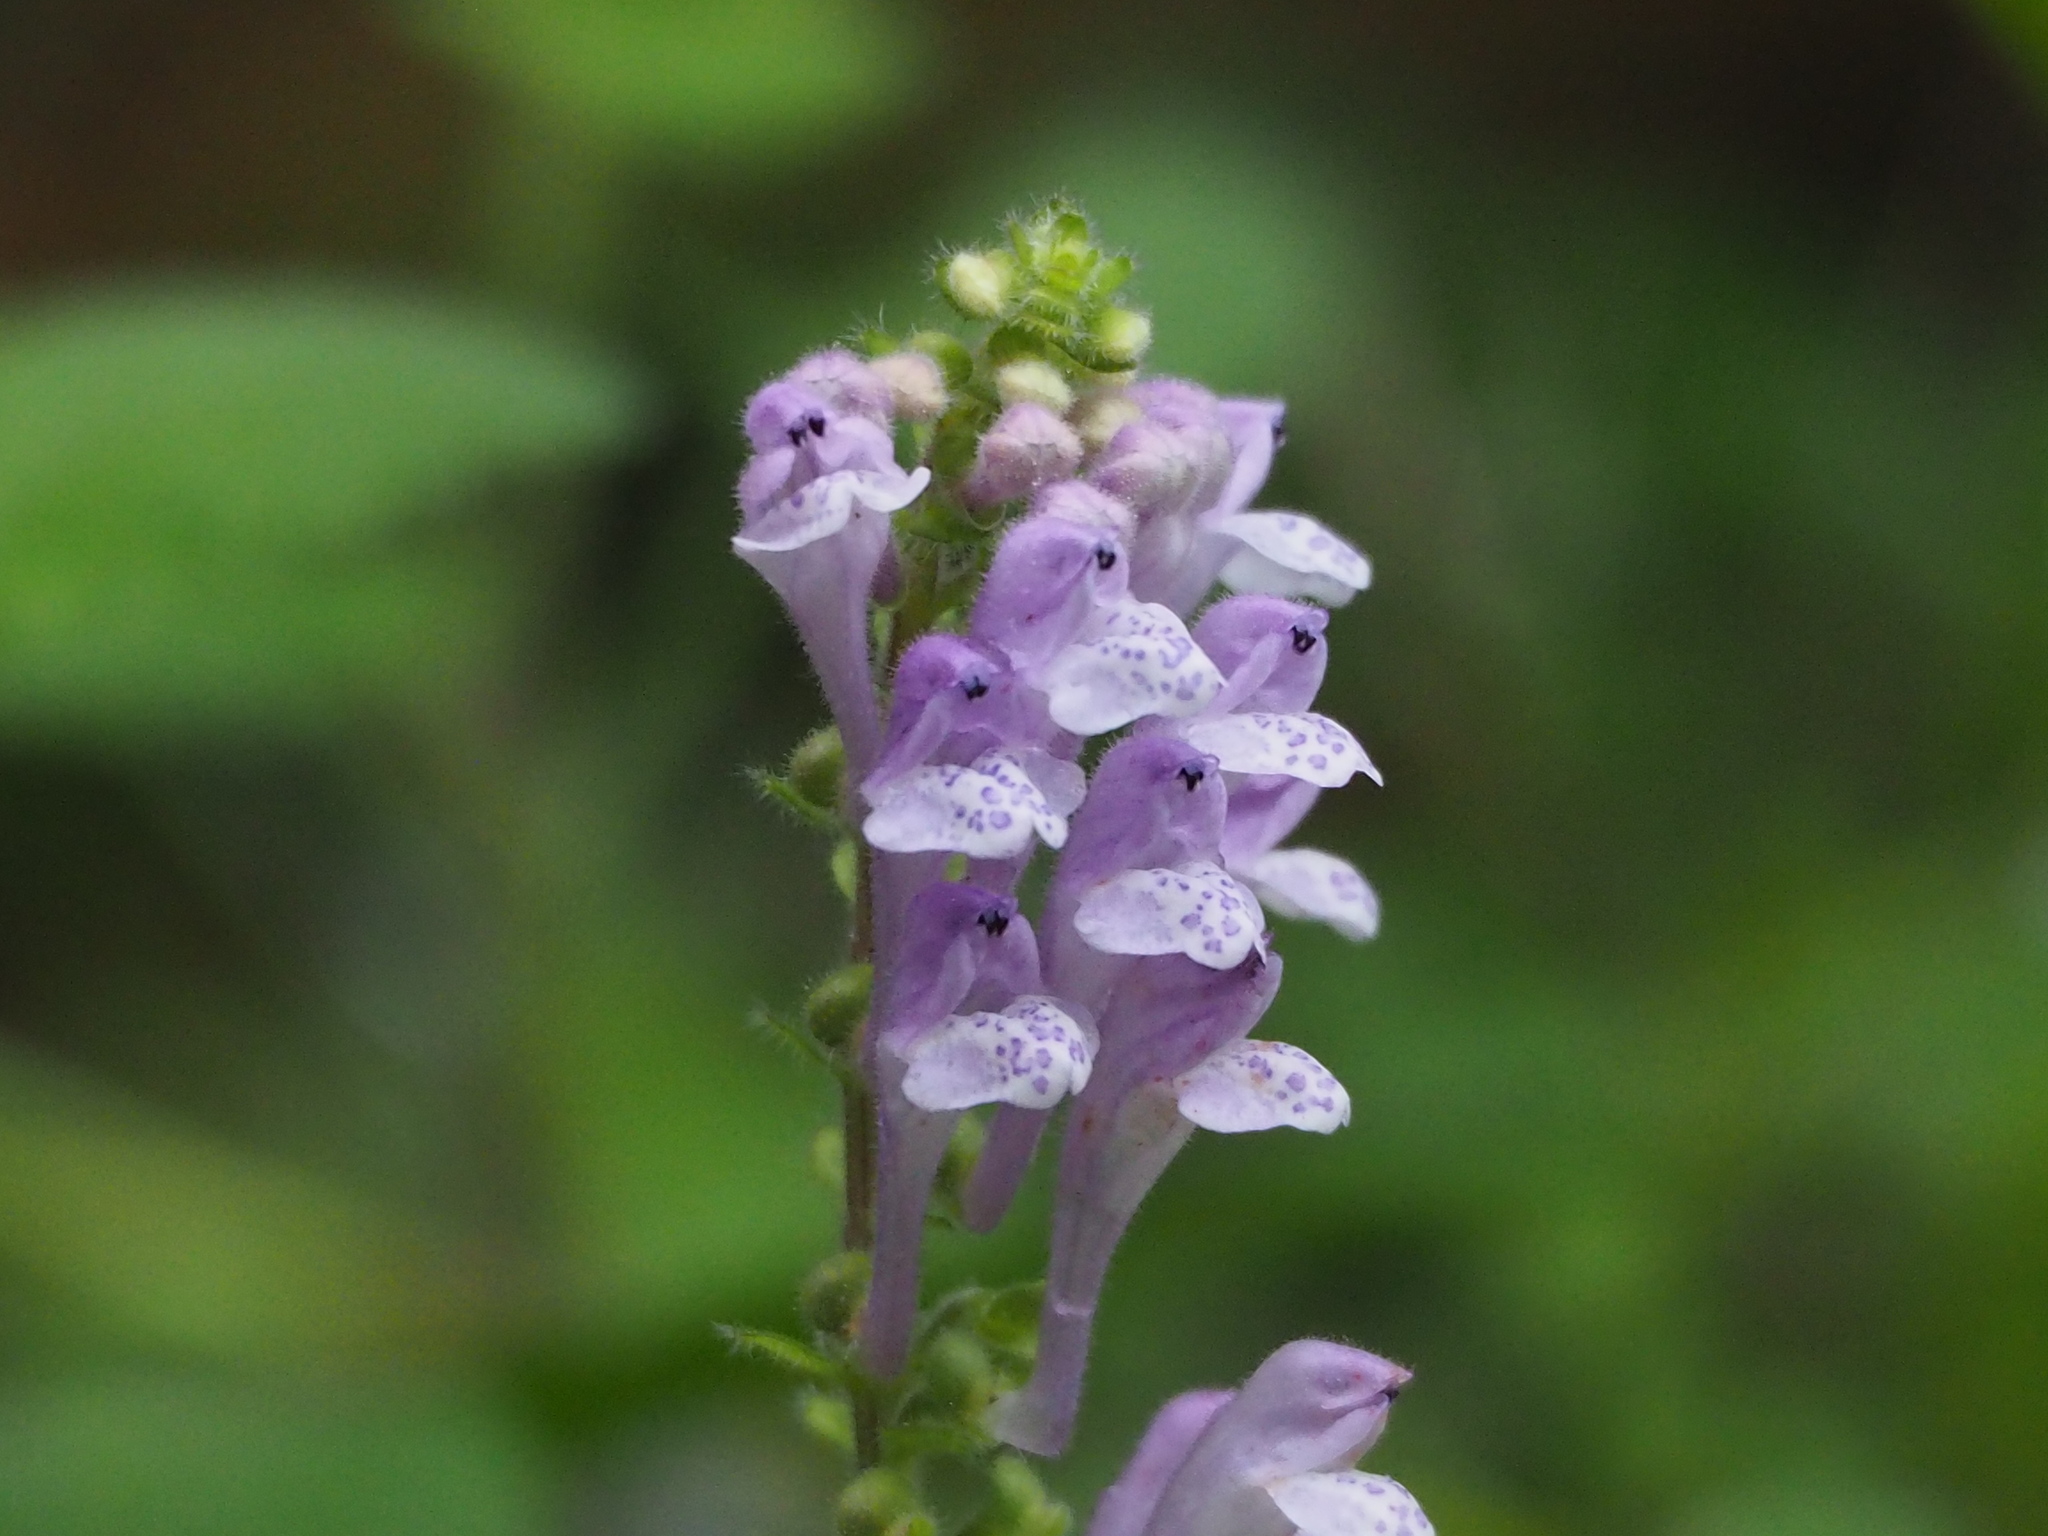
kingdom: Plantae
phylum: Tracheophyta
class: Magnoliopsida
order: Lamiales
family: Lamiaceae
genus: Scutellaria
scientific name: Scutellaria indica
